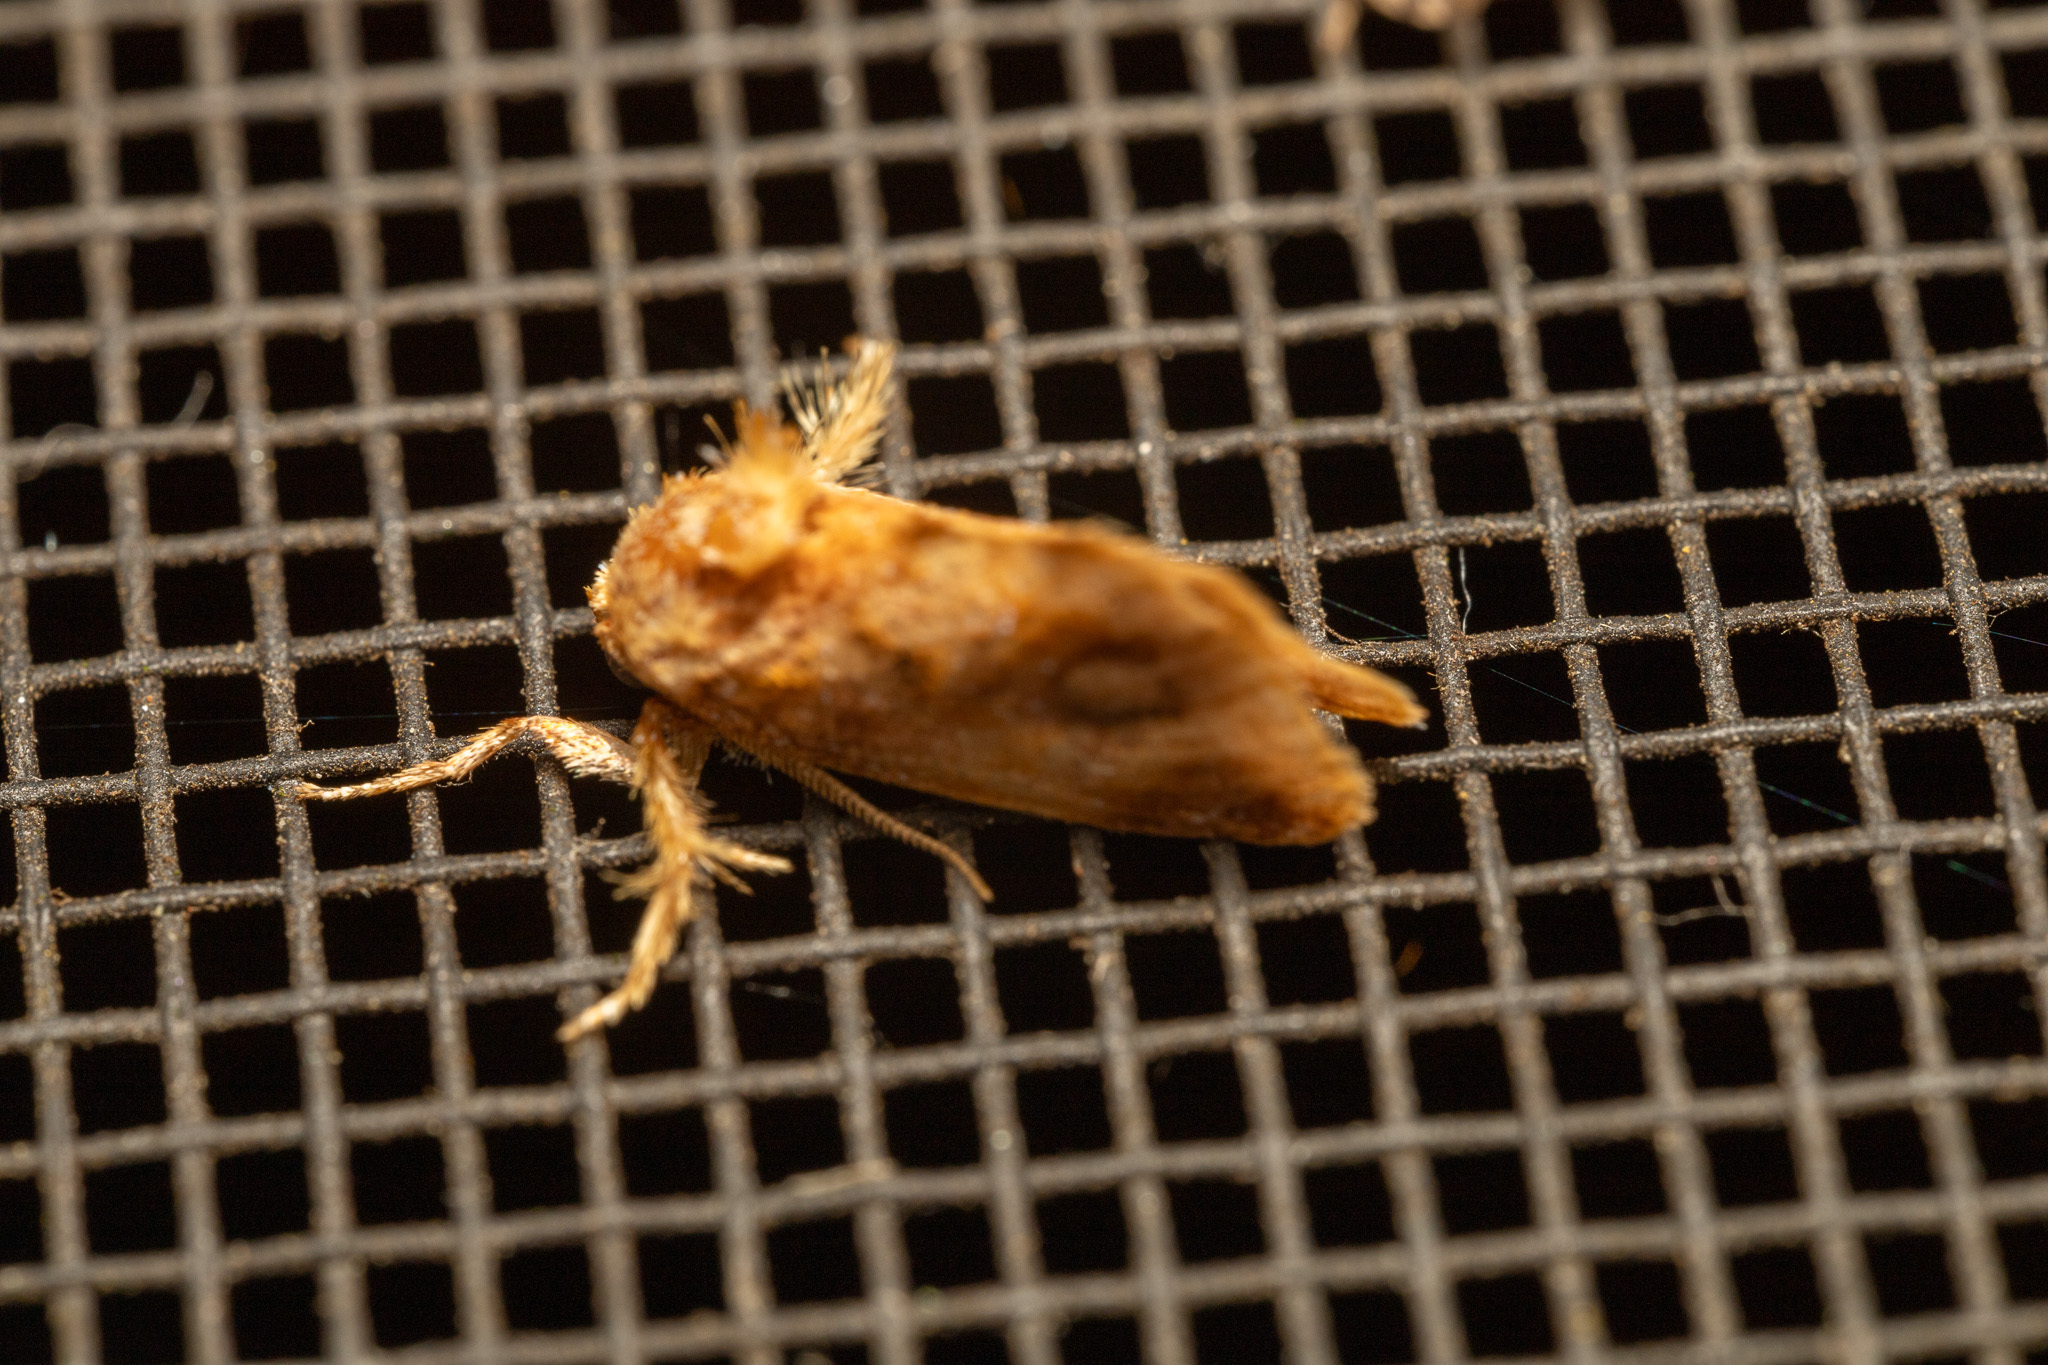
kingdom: Animalia
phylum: Arthropoda
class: Insecta
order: Lepidoptera
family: Limacodidae
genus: Isochaetes
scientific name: Isochaetes beutenmuelleri
